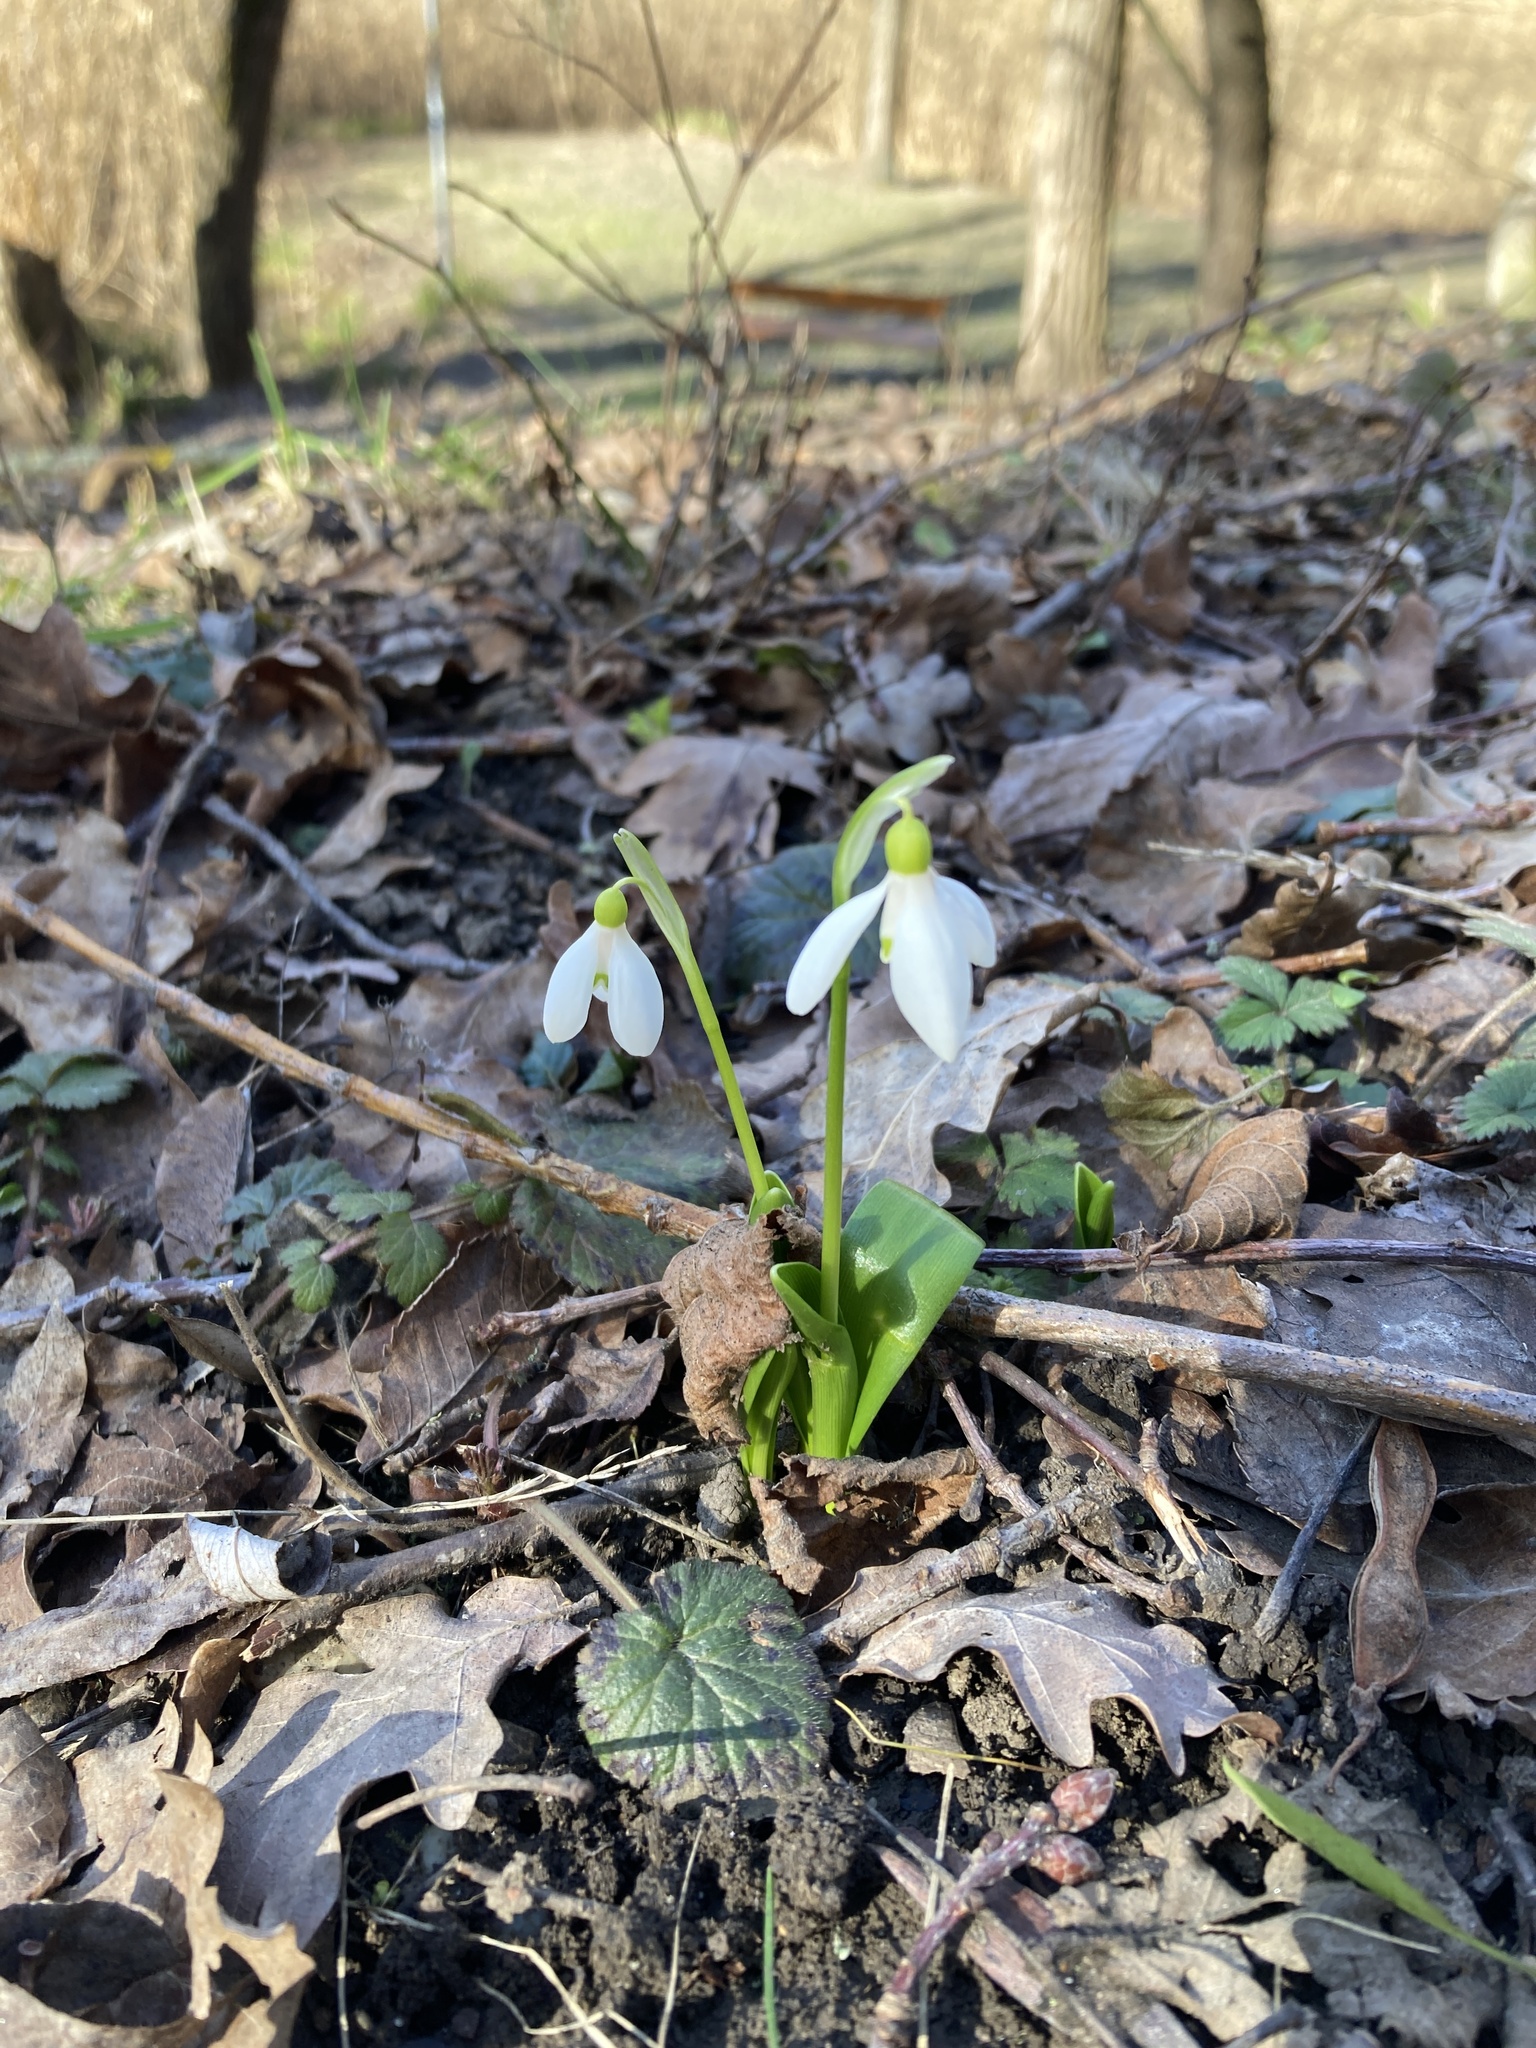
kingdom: Plantae
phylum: Tracheophyta
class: Liliopsida
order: Asparagales
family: Amaryllidaceae
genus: Galanthus
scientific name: Galanthus woronowii
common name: Green snowdrop
